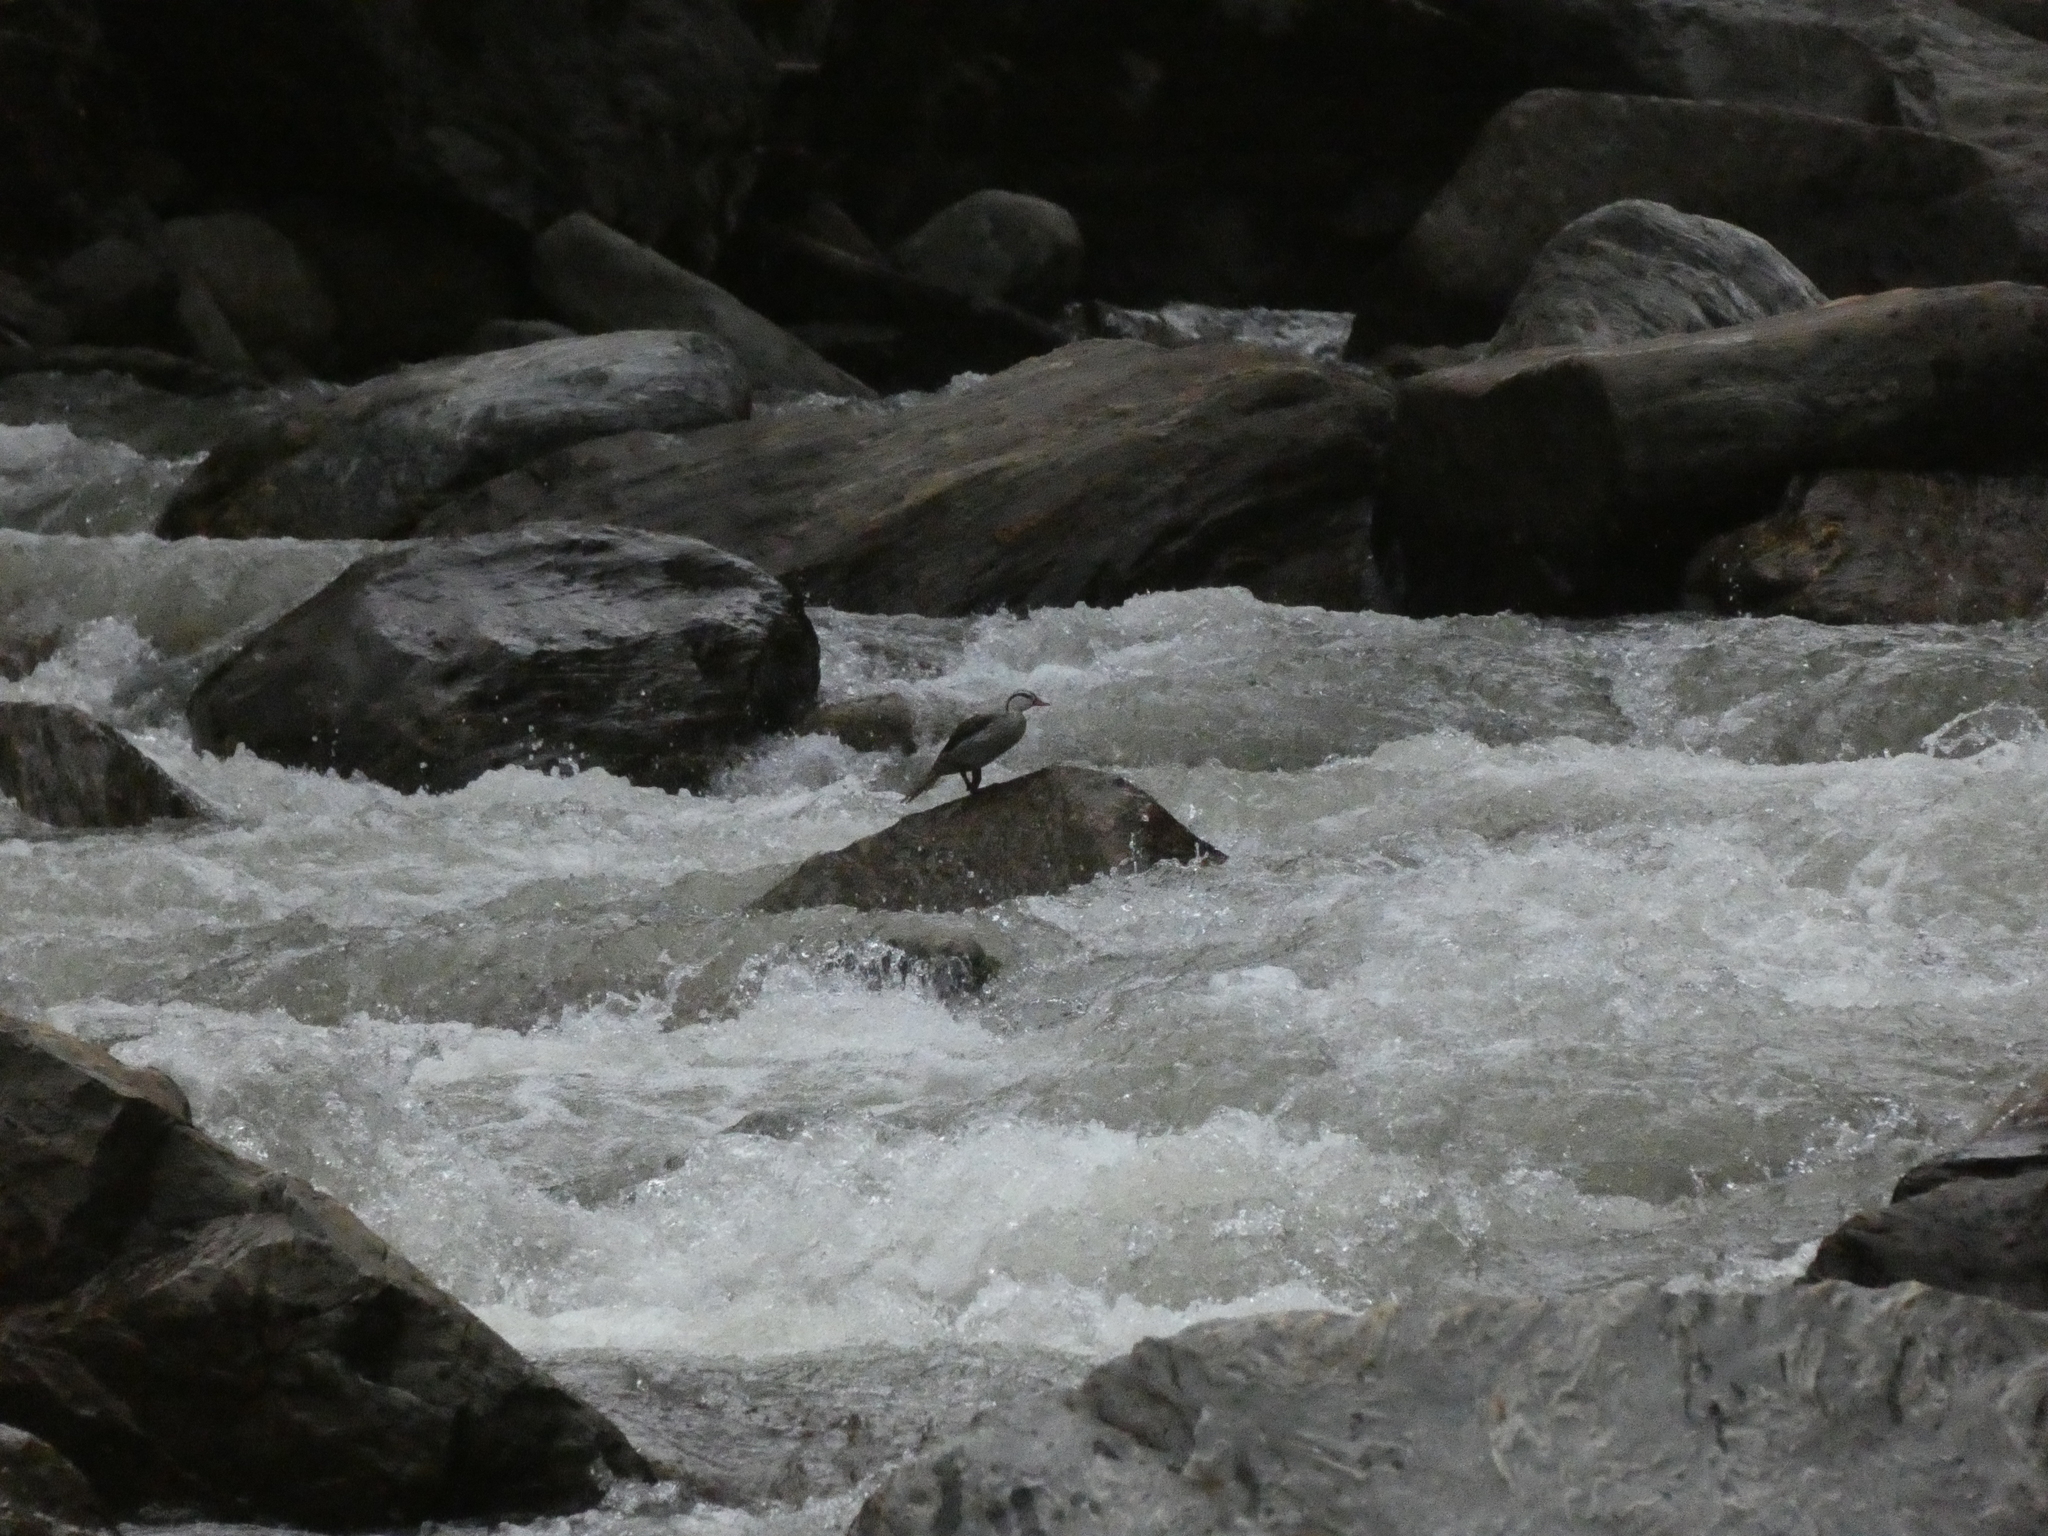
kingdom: Animalia
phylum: Chordata
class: Aves
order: Anseriformes
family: Anatidae
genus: Merganetta
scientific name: Merganetta armata
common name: Torrent duck
